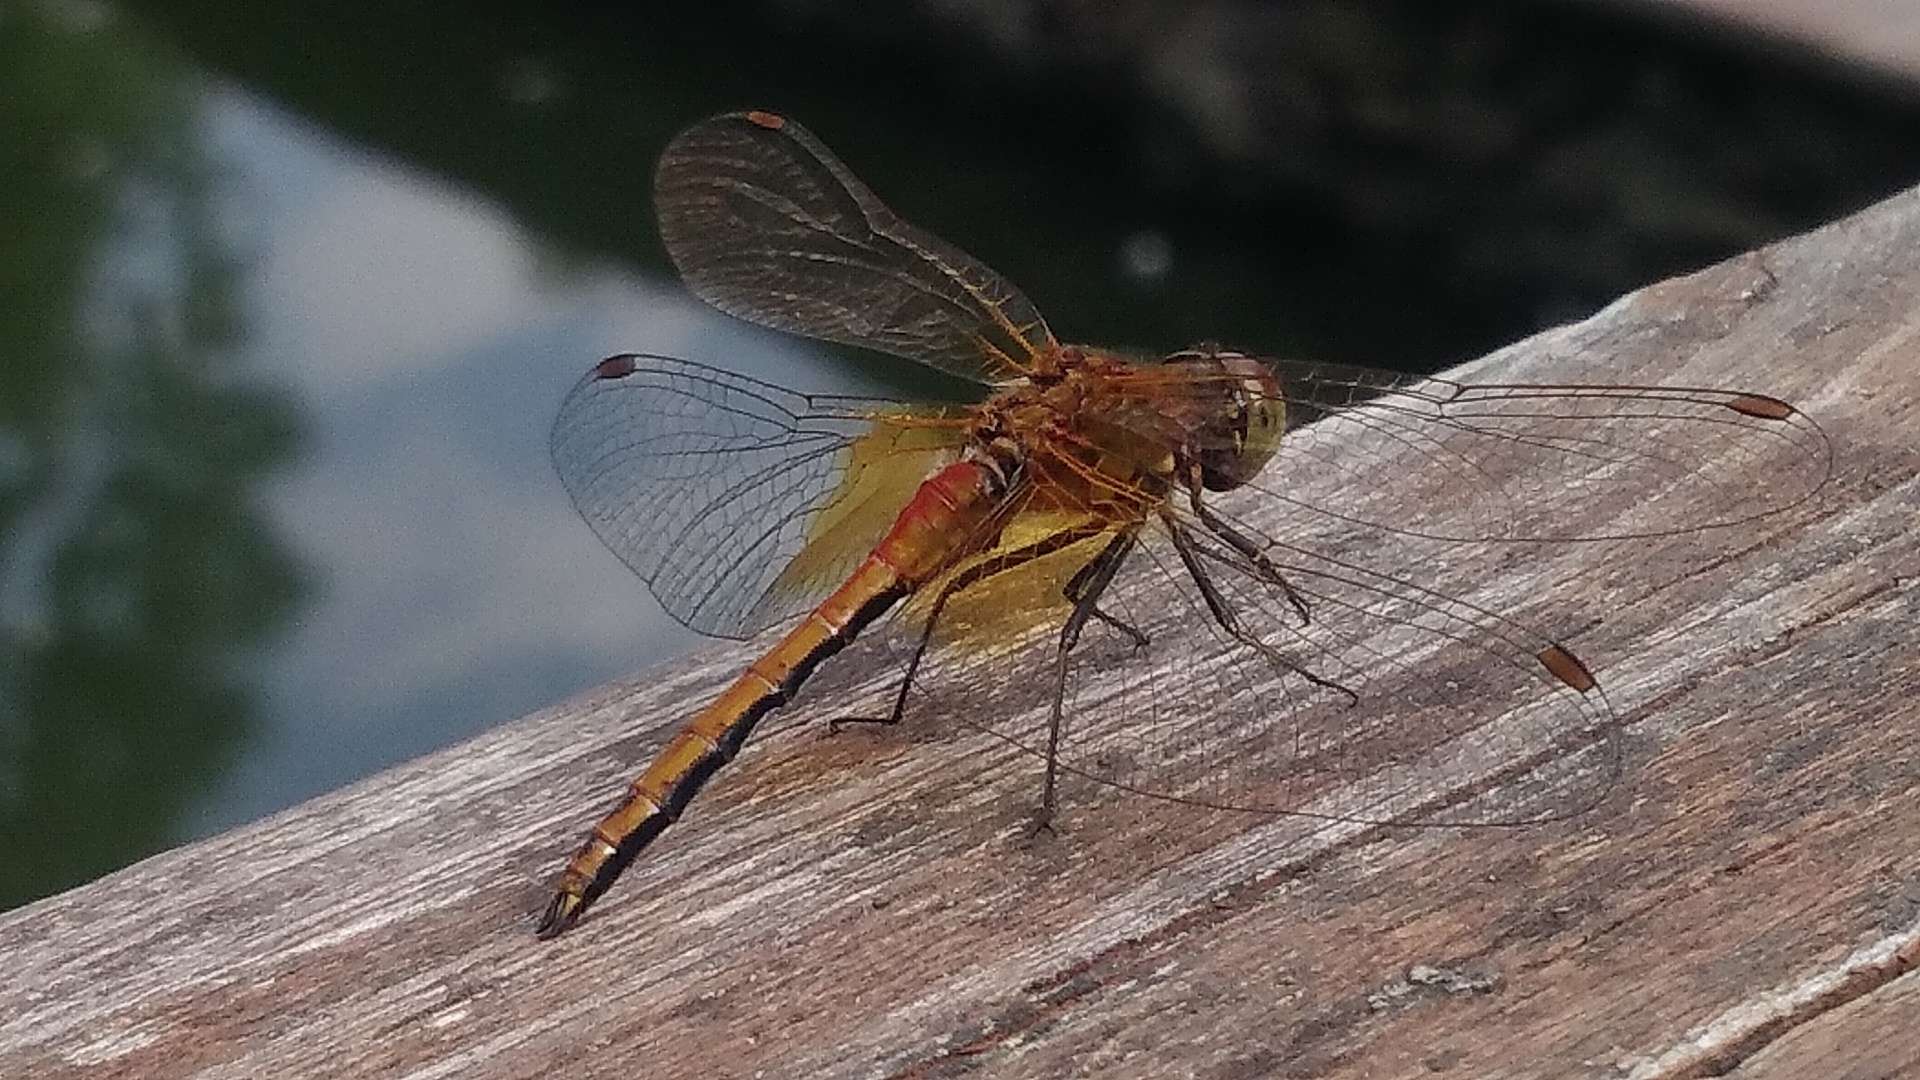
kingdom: Animalia
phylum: Arthropoda
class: Insecta
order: Odonata
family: Libellulidae
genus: Sympetrum
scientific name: Sympetrum flaveolum
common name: Yellow-winged darter
